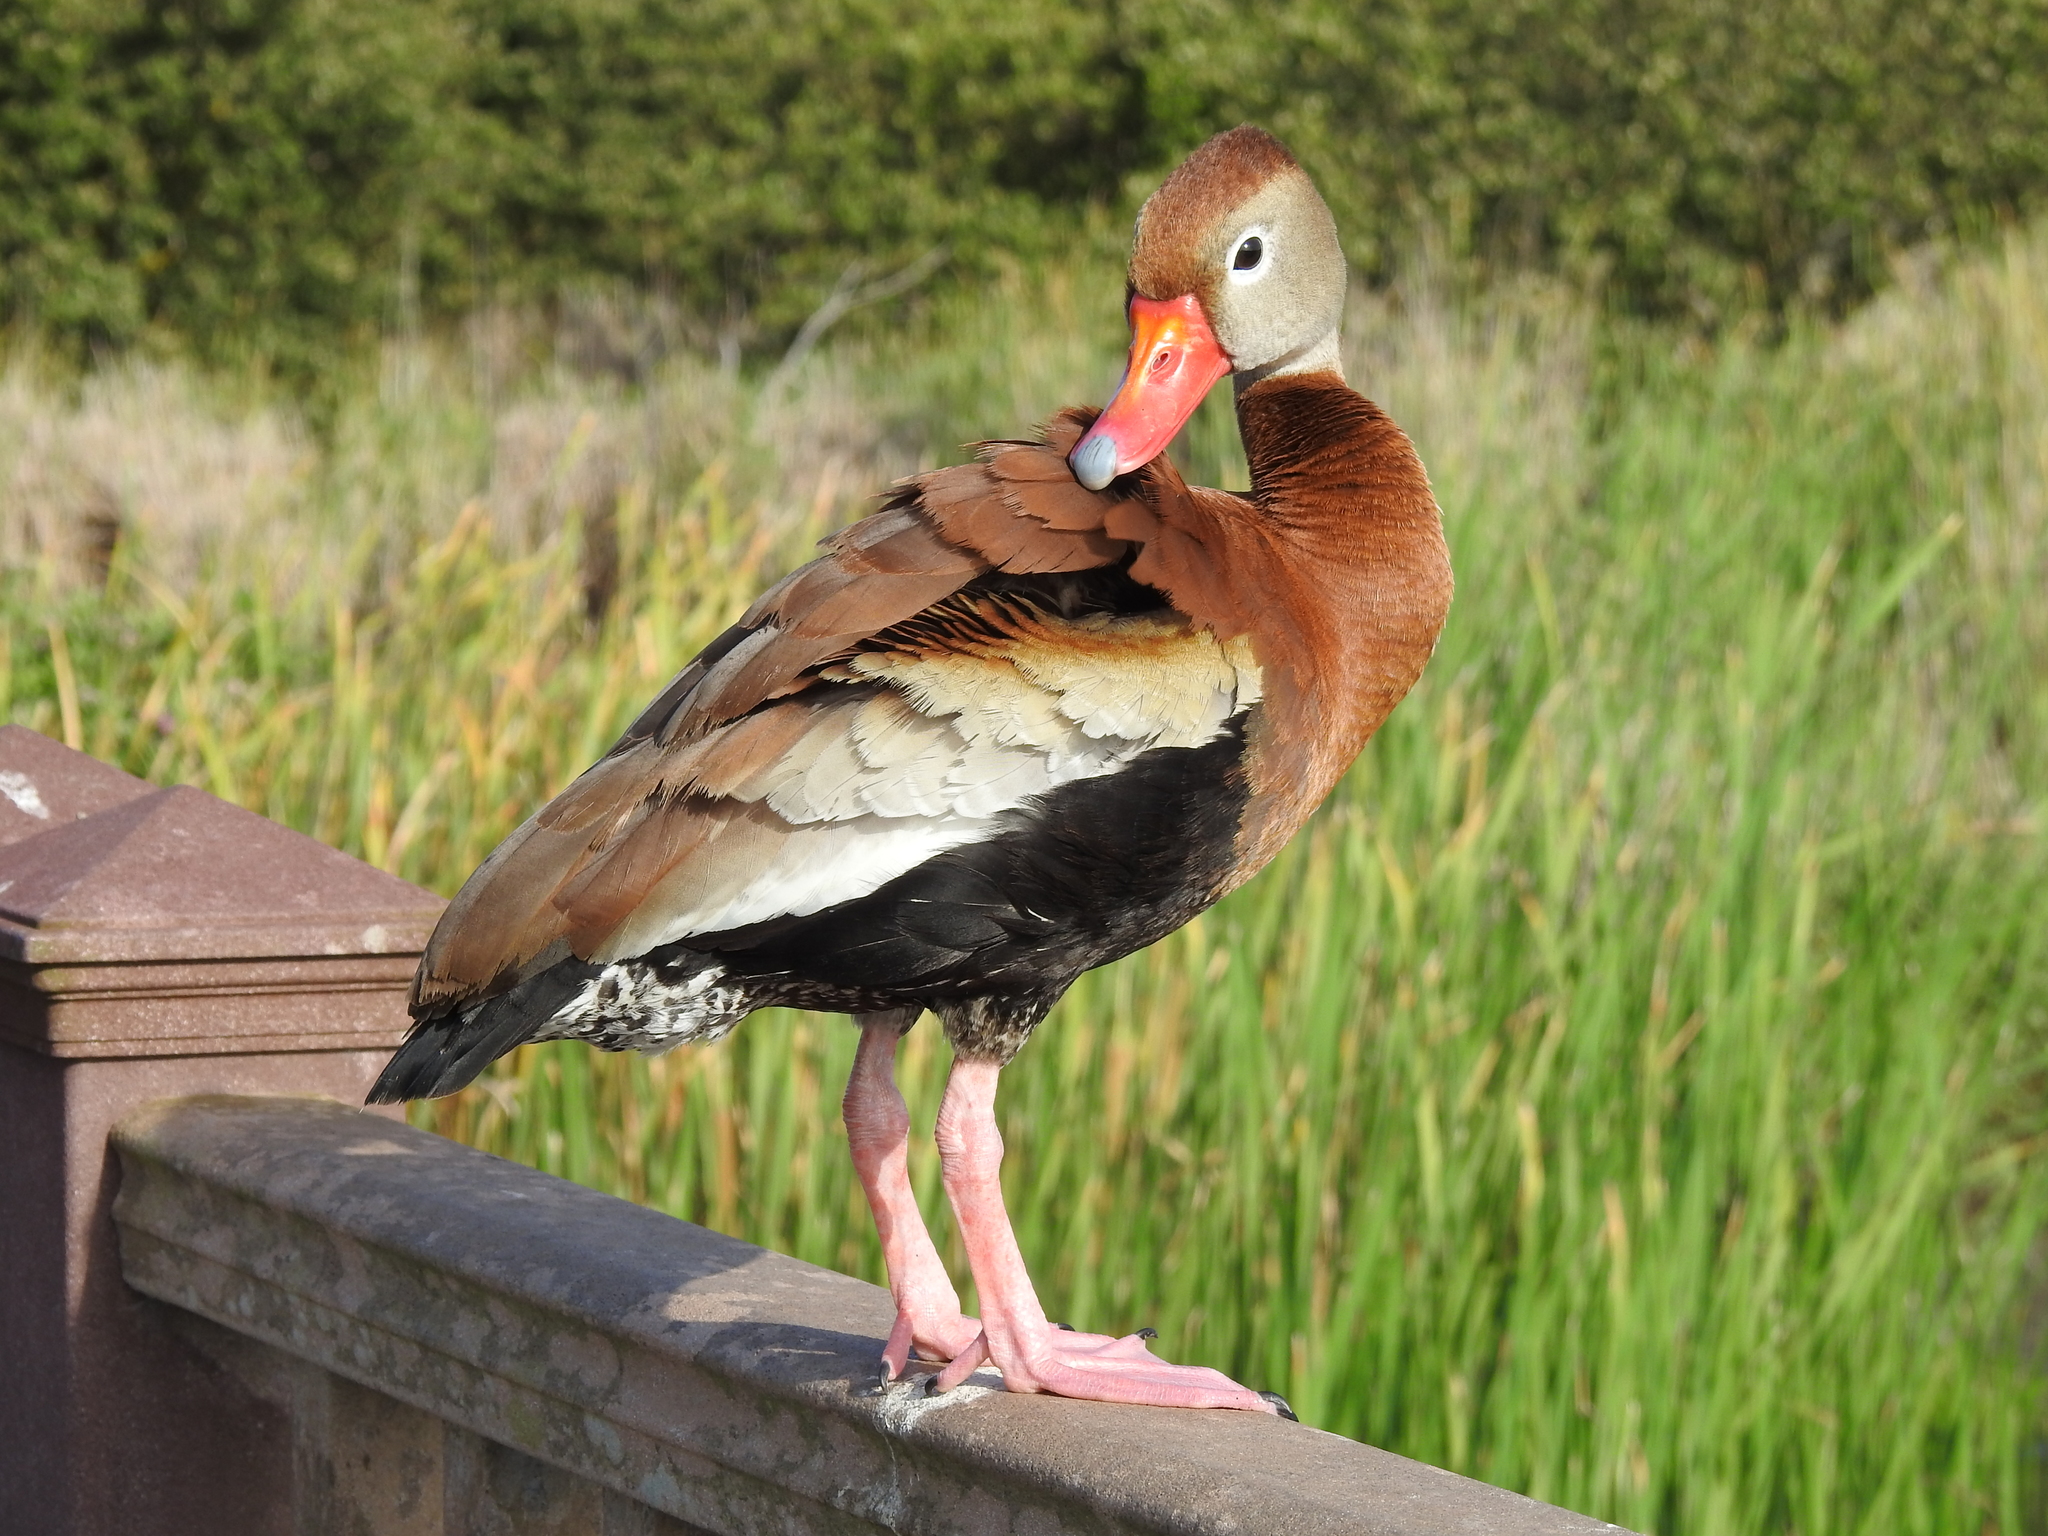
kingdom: Animalia
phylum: Chordata
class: Aves
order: Anseriformes
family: Anatidae
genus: Dendrocygna
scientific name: Dendrocygna autumnalis
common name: Black-bellied whistling duck
